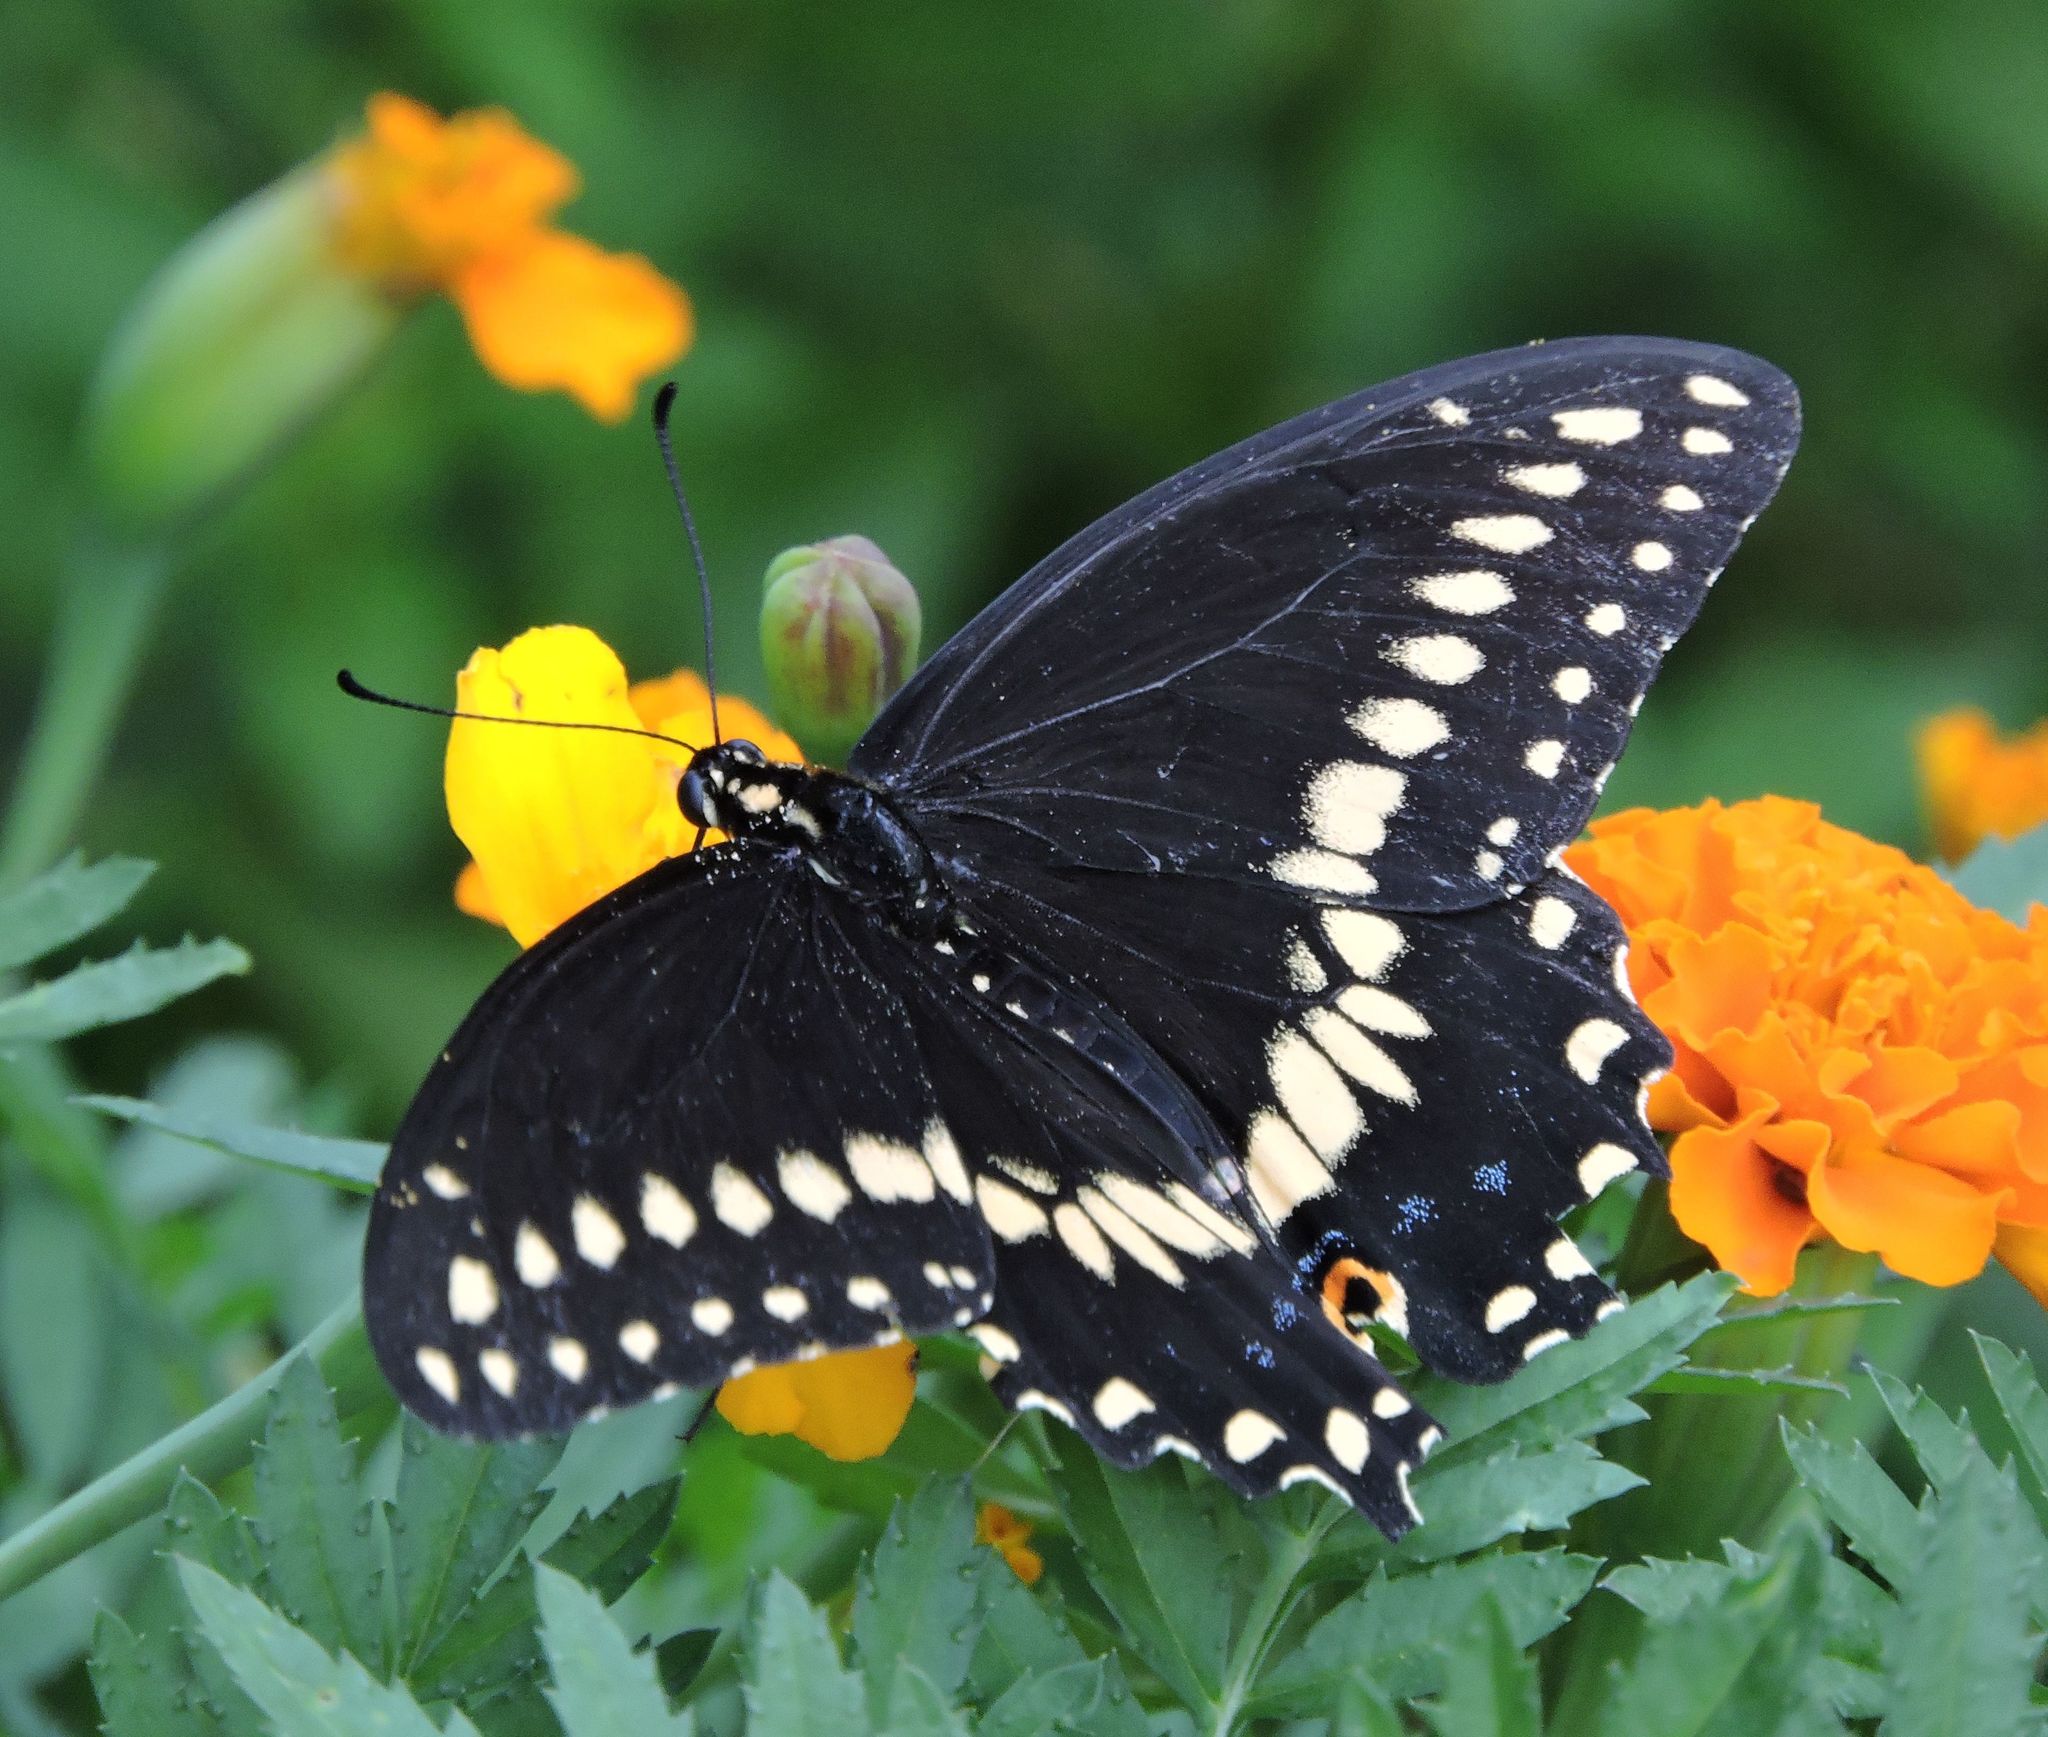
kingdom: Animalia
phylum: Arthropoda
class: Insecta
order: Lepidoptera
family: Papilionidae
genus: Papilio
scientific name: Papilio polyxenes
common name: Black swallowtail
